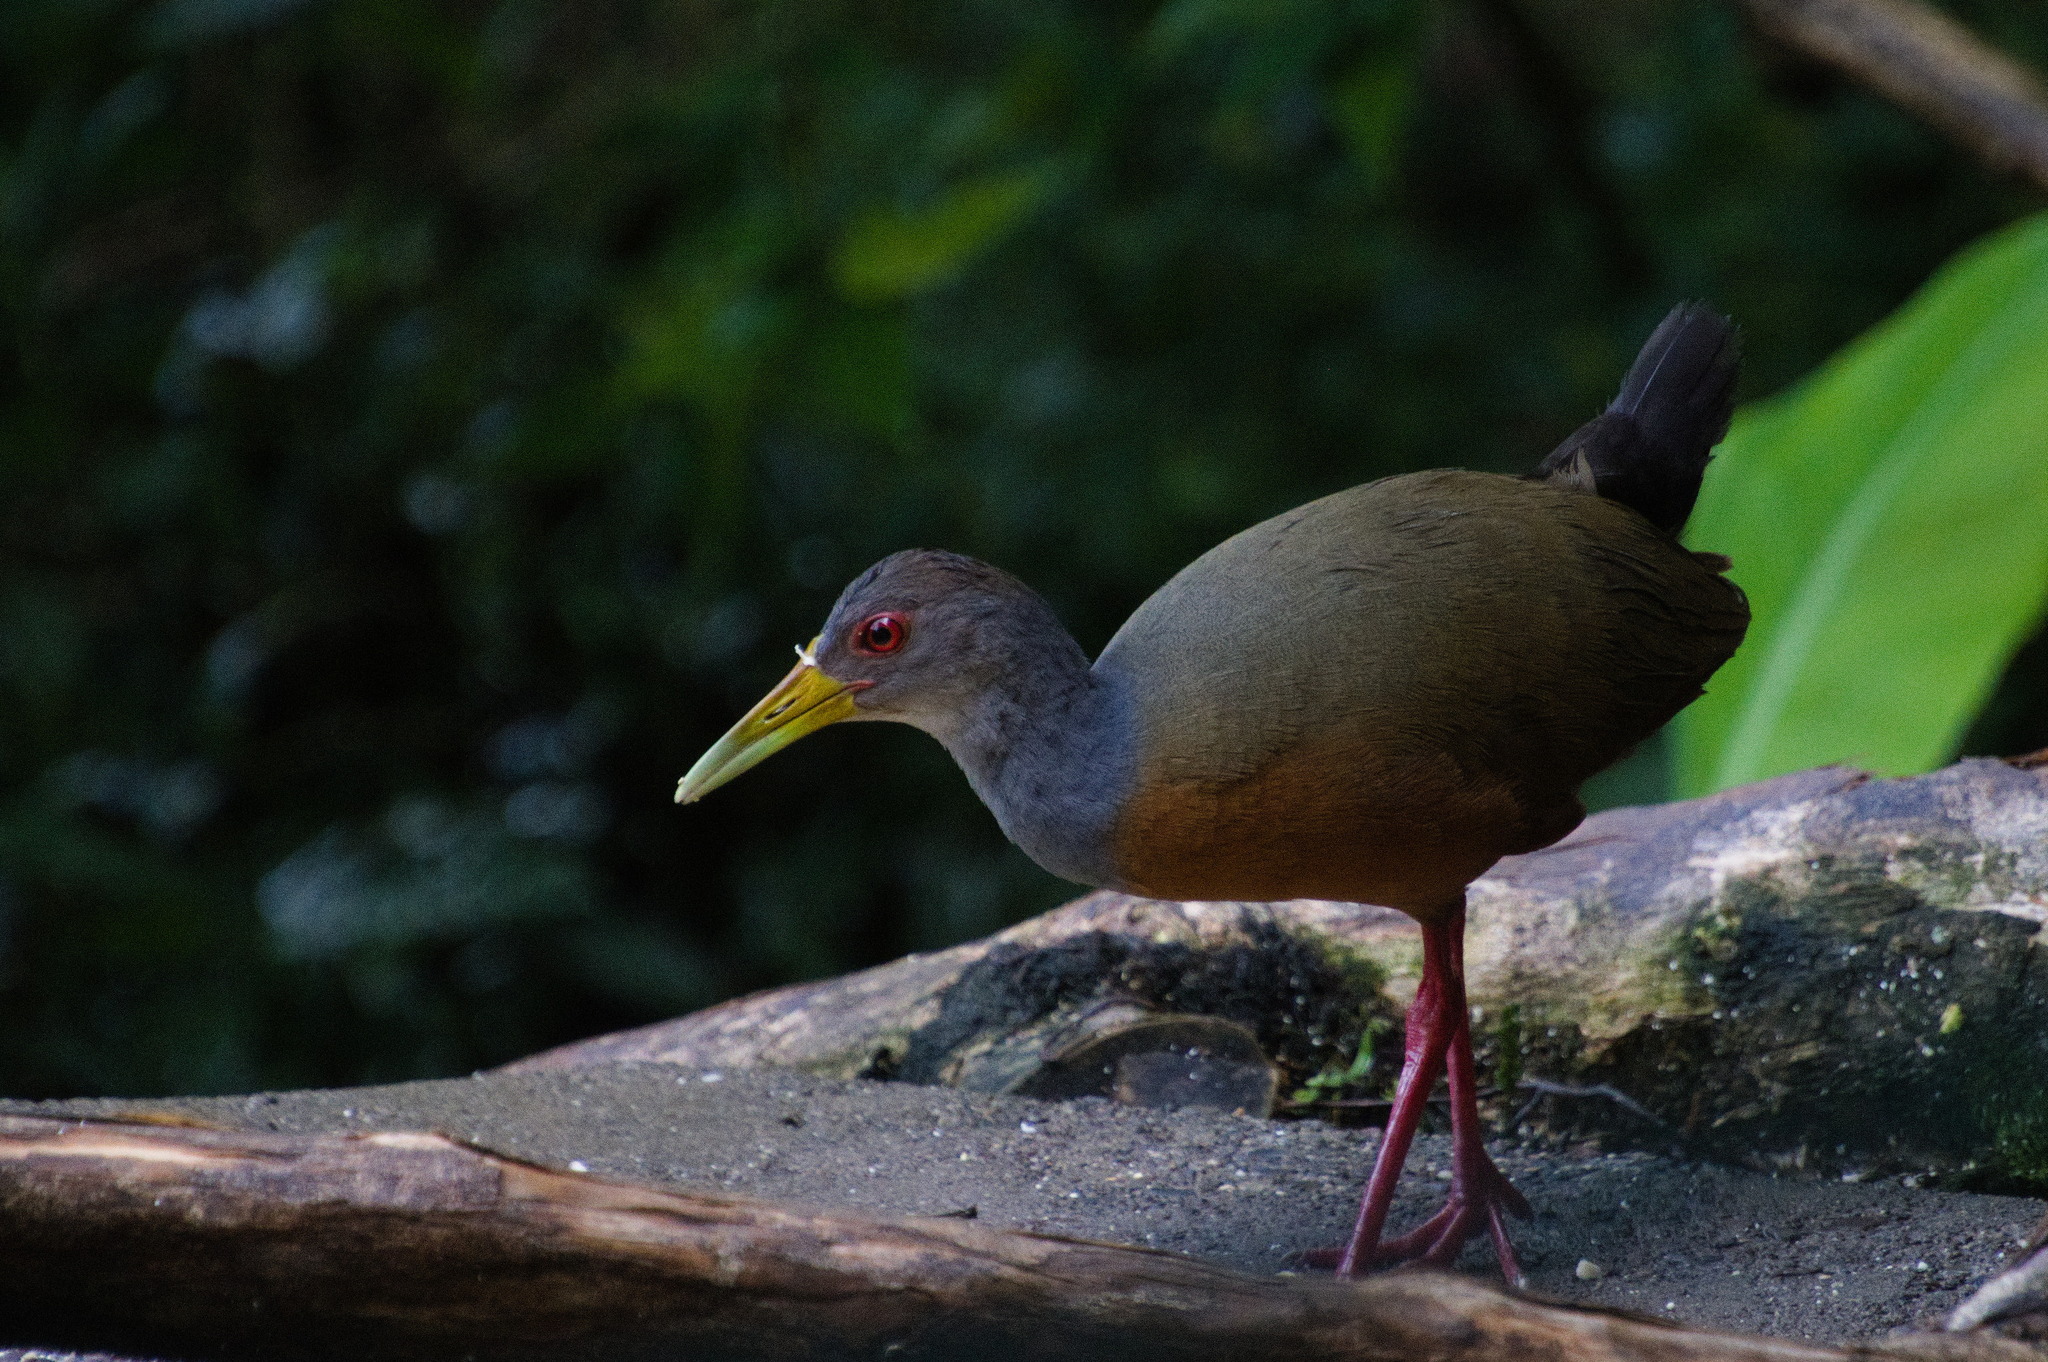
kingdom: Animalia
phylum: Chordata
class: Aves
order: Gruiformes
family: Rallidae
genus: Aramides
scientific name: Aramides cajanea
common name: Gray-necked wood-rail
